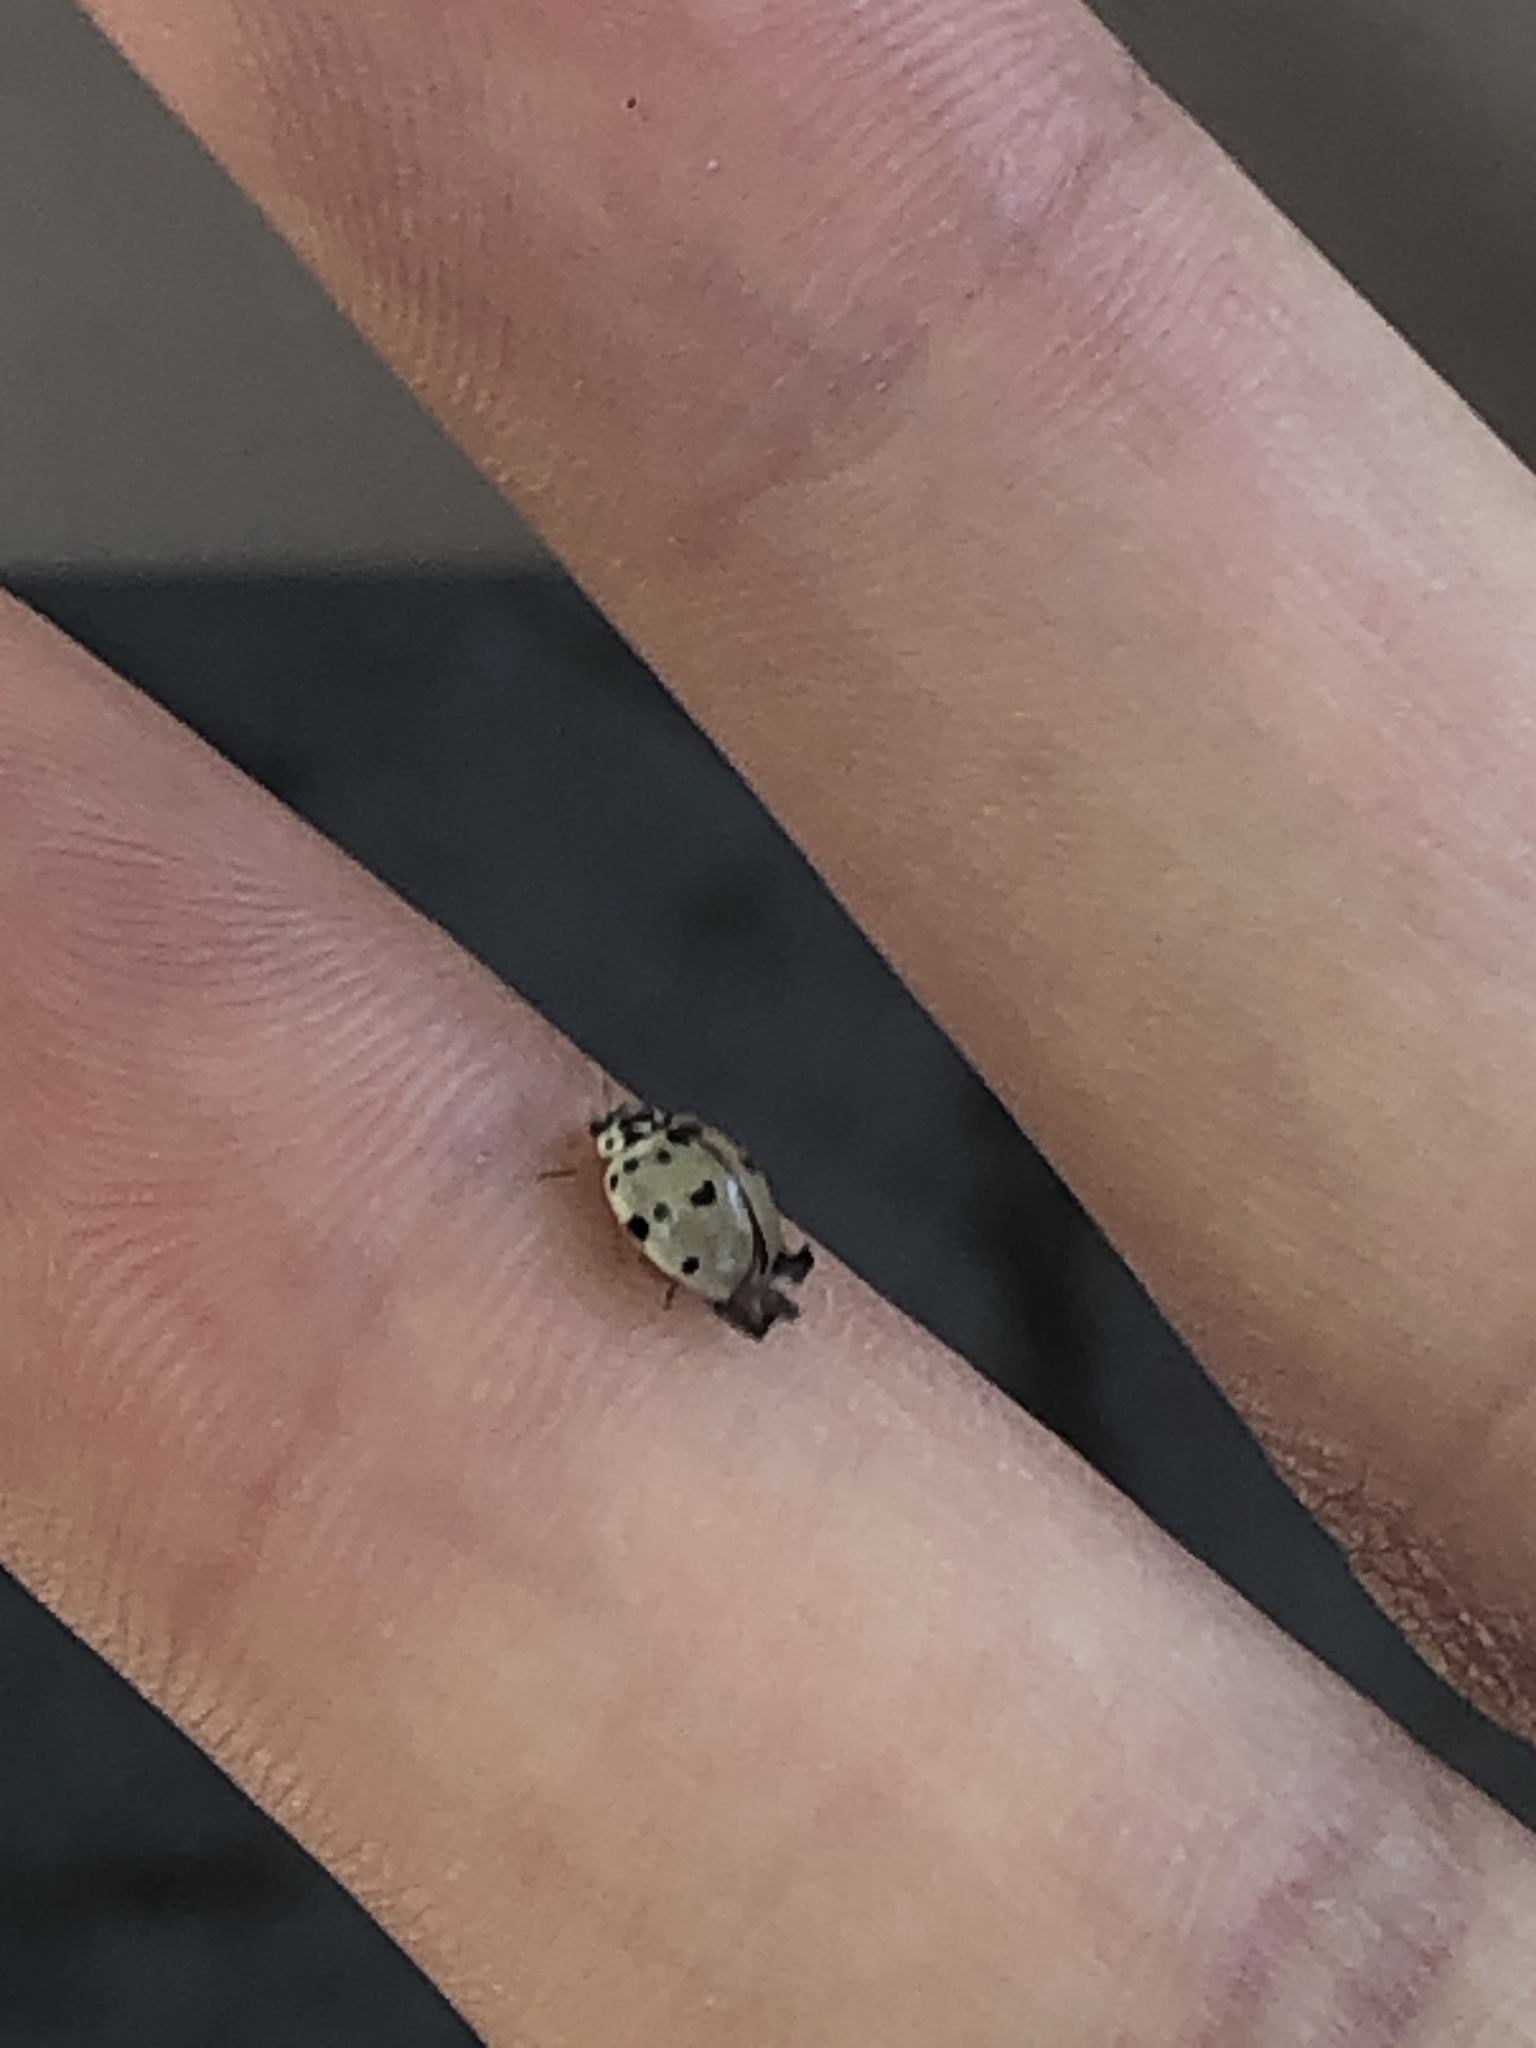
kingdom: Animalia
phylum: Arthropoda
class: Insecta
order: Coleoptera
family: Coccinellidae
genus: Olla
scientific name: Olla v-nigrum
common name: Ashy gray lady beetle
